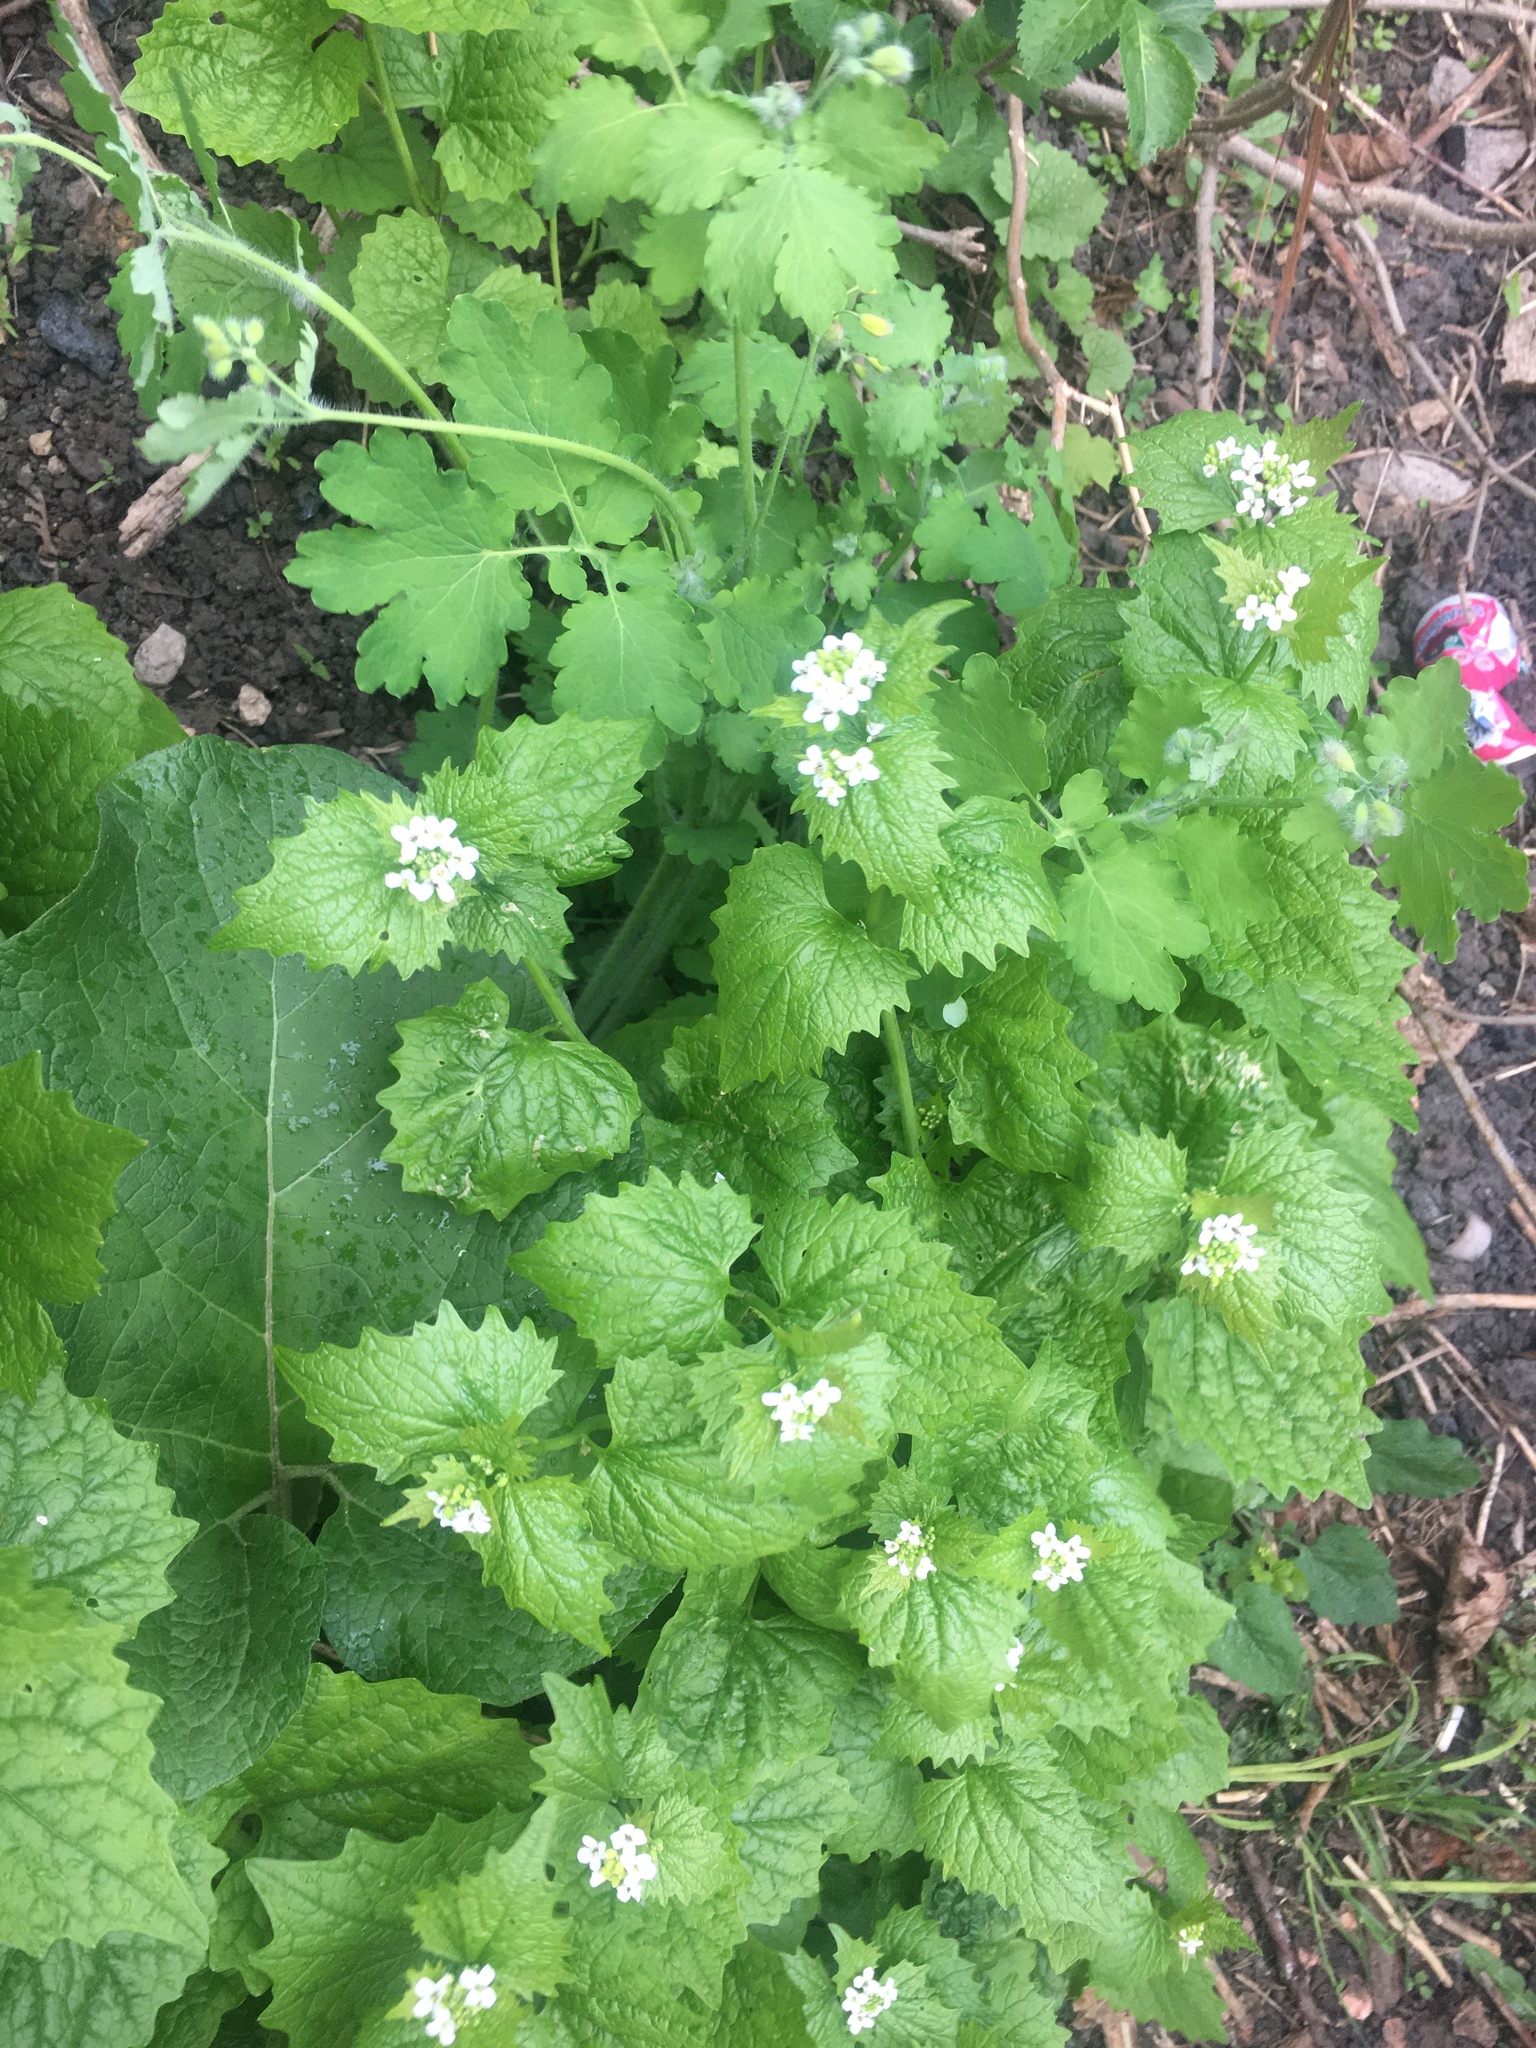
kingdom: Plantae
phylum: Tracheophyta
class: Magnoliopsida
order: Brassicales
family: Brassicaceae
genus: Alliaria
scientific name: Alliaria petiolata
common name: Garlic mustard
